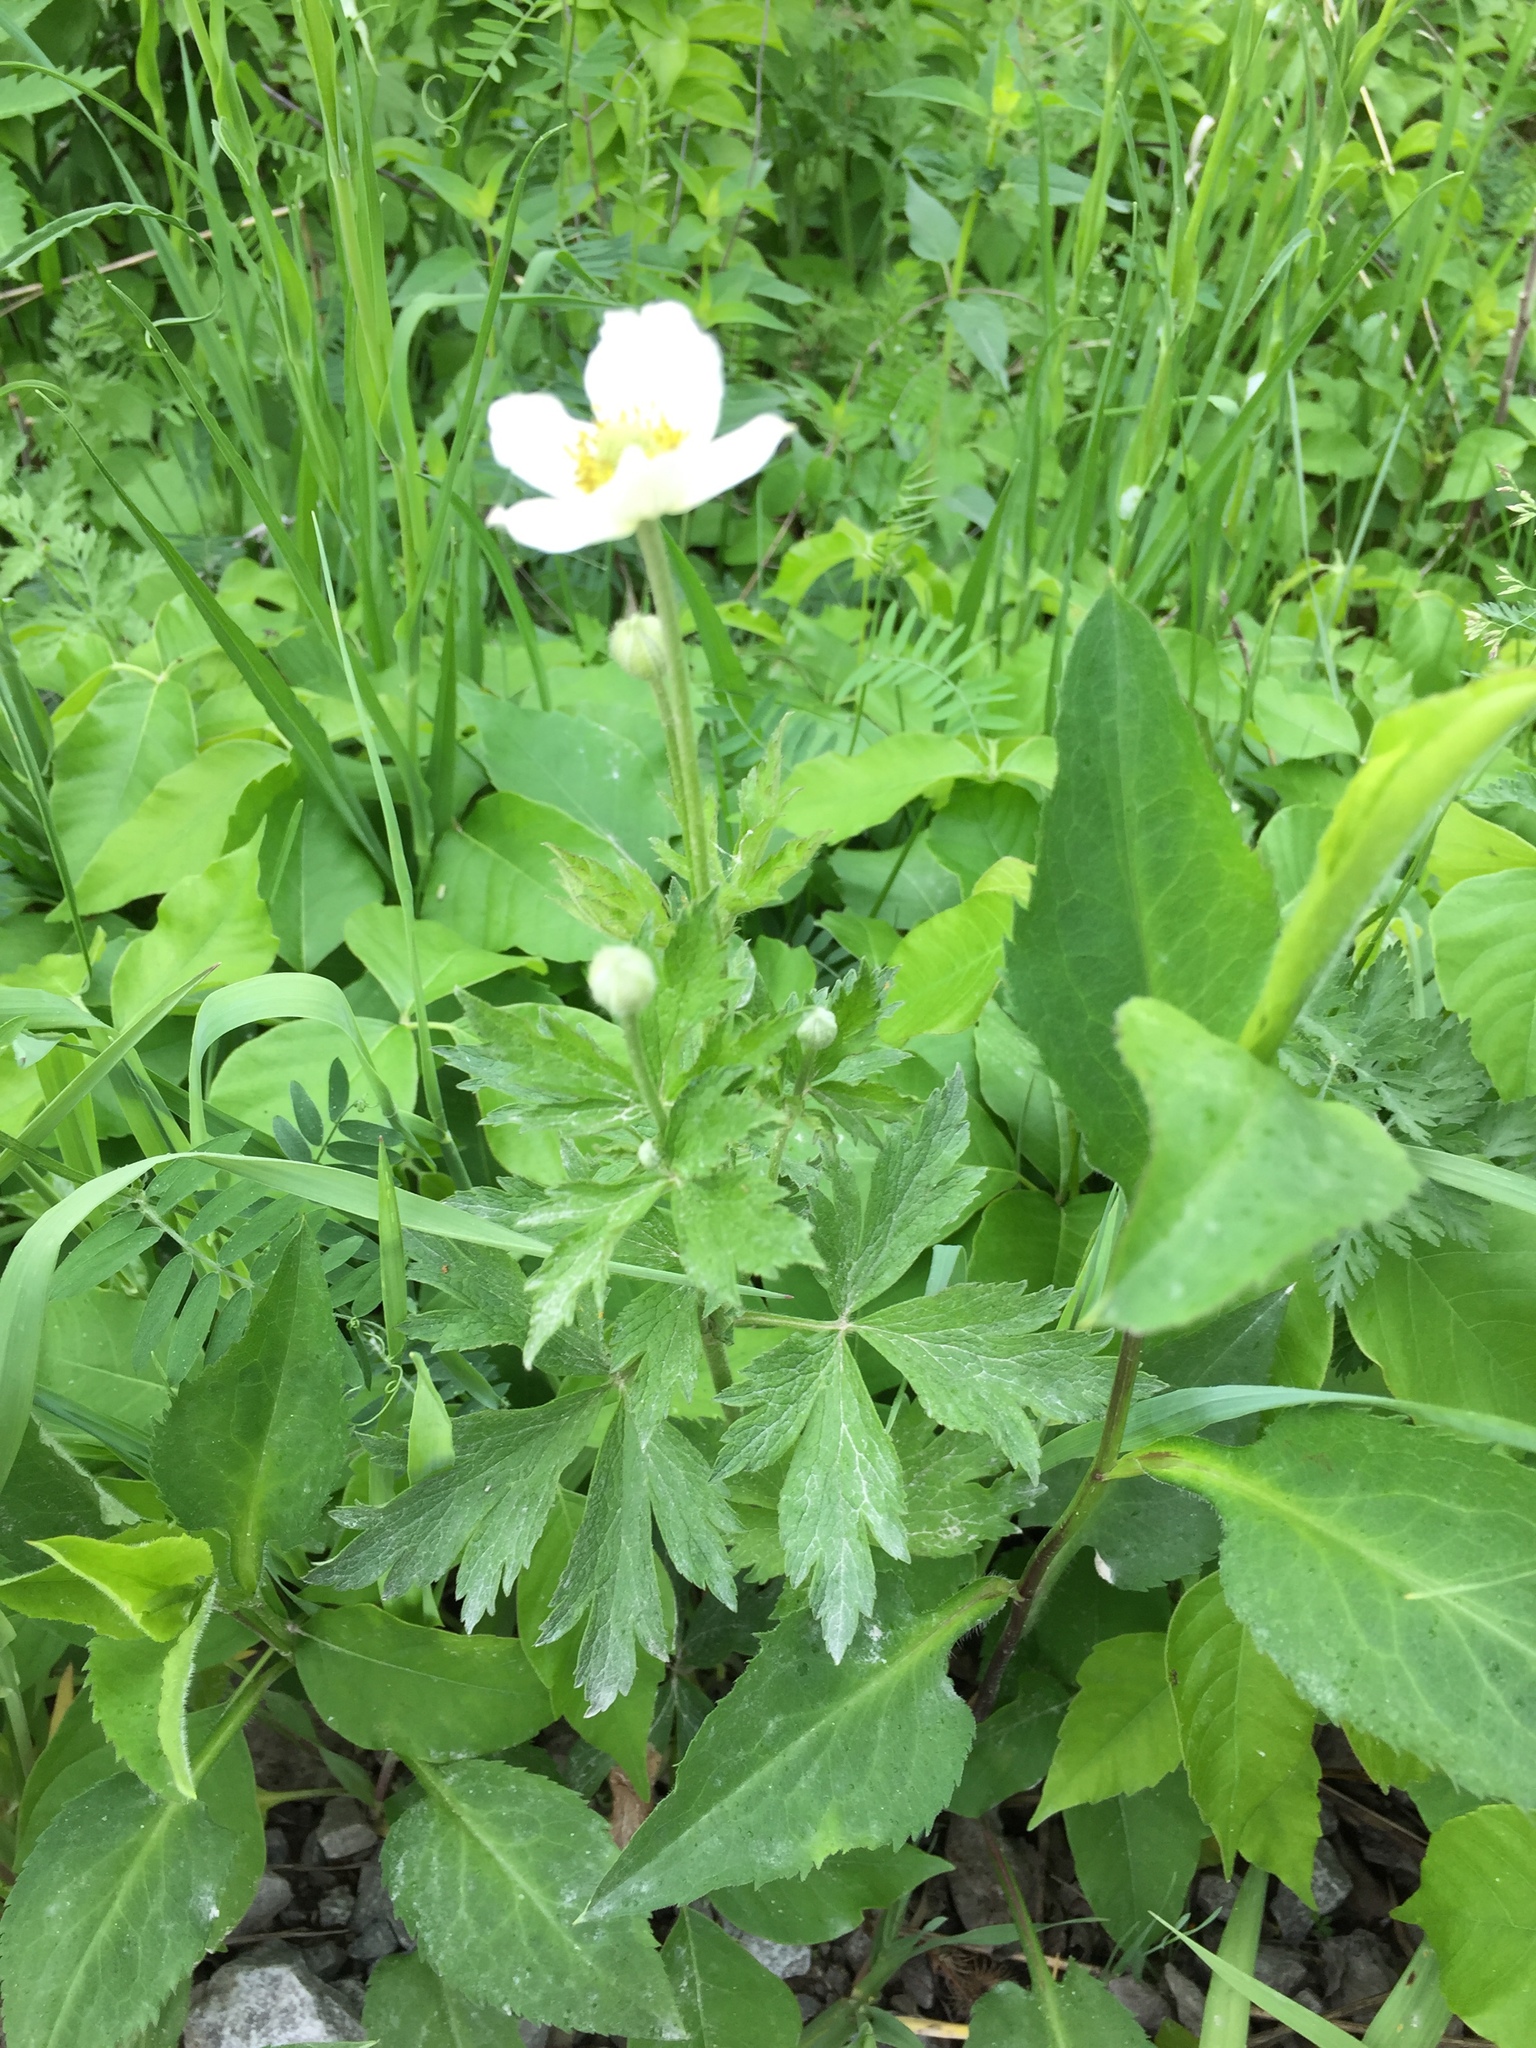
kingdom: Plantae
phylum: Tracheophyta
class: Magnoliopsida
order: Ranunculales
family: Ranunculaceae
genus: Anemone
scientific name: Anemone virginiana
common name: Tall anemone
